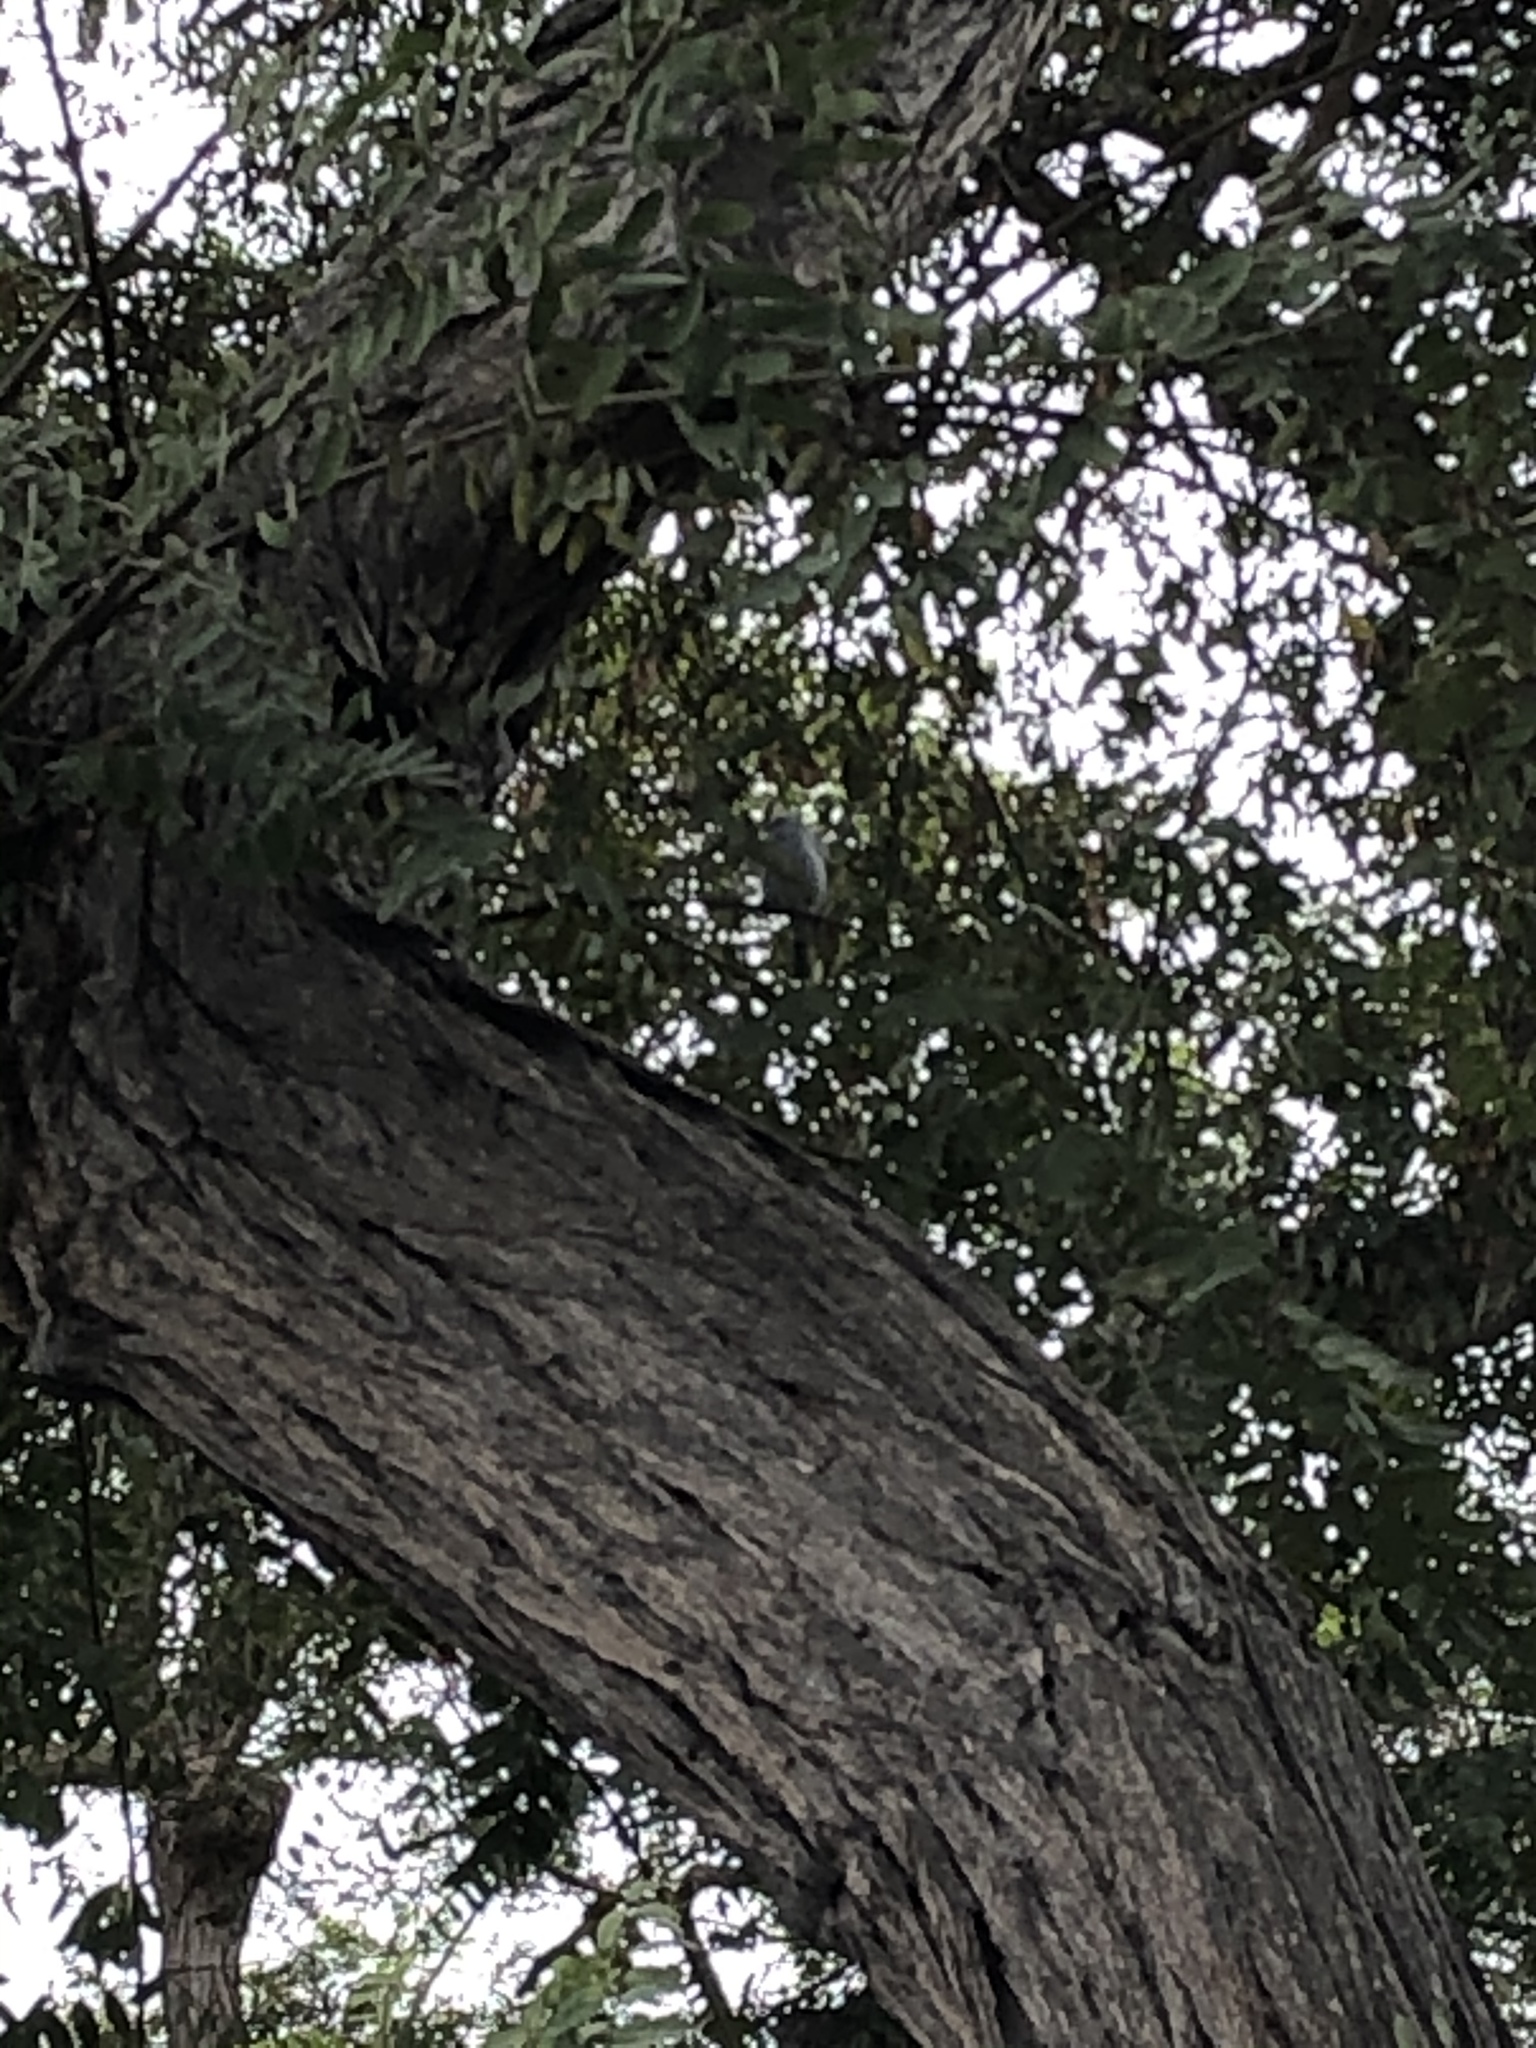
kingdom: Animalia
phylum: Chordata
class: Aves
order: Passeriformes
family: Thraupidae
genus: Thraupis
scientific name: Thraupis episcopus
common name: Blue-grey tanager
